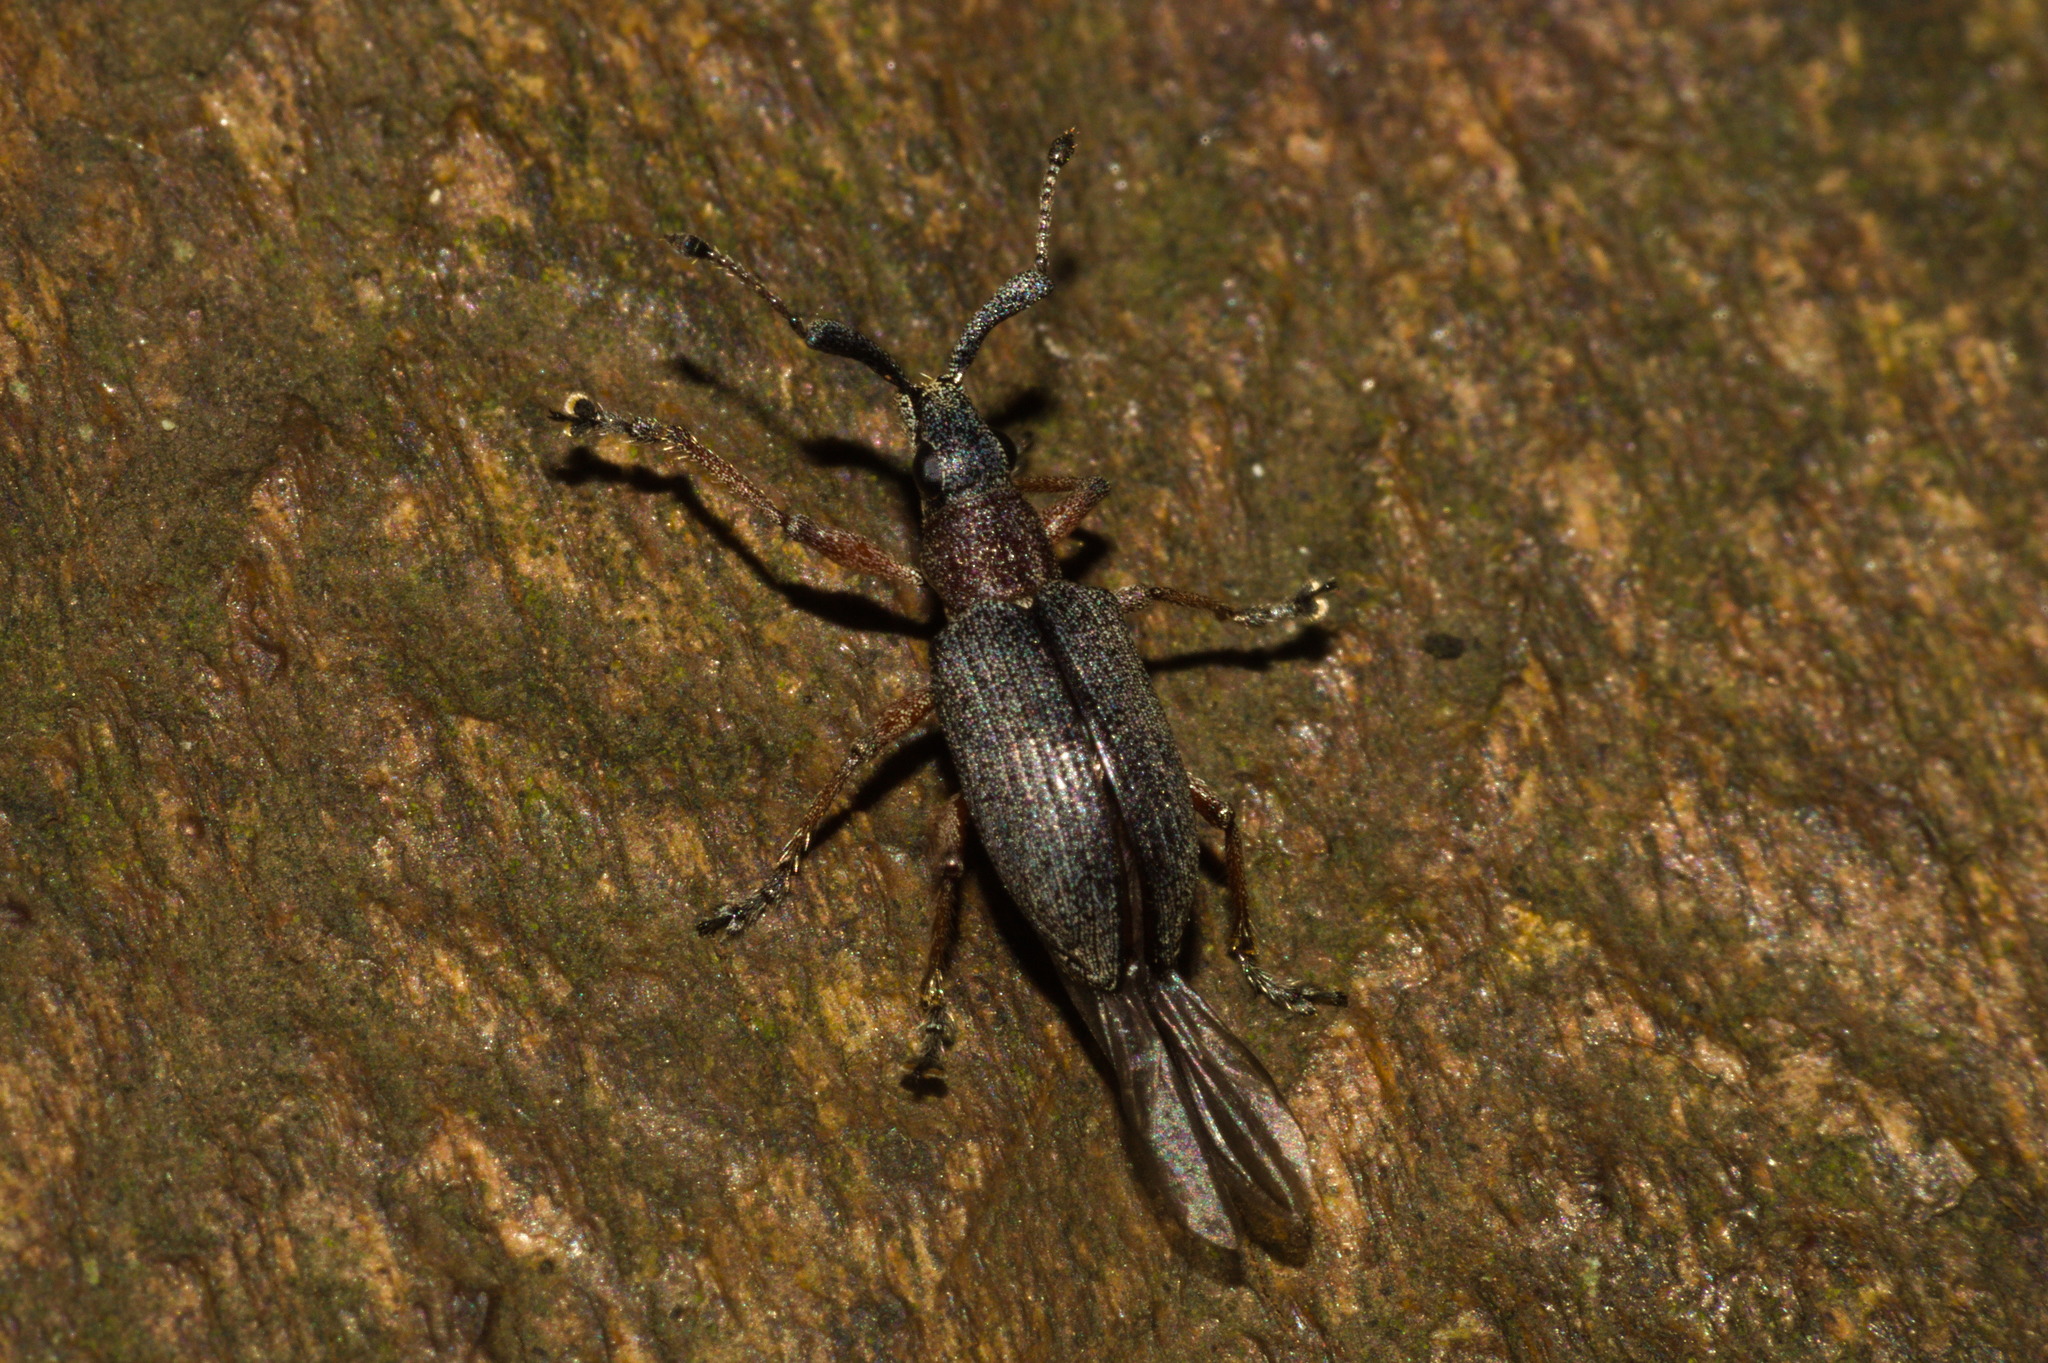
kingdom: Animalia
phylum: Arthropoda
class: Insecta
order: Coleoptera
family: Curculionidae
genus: Aptolemus
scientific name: Aptolemus rufipes
